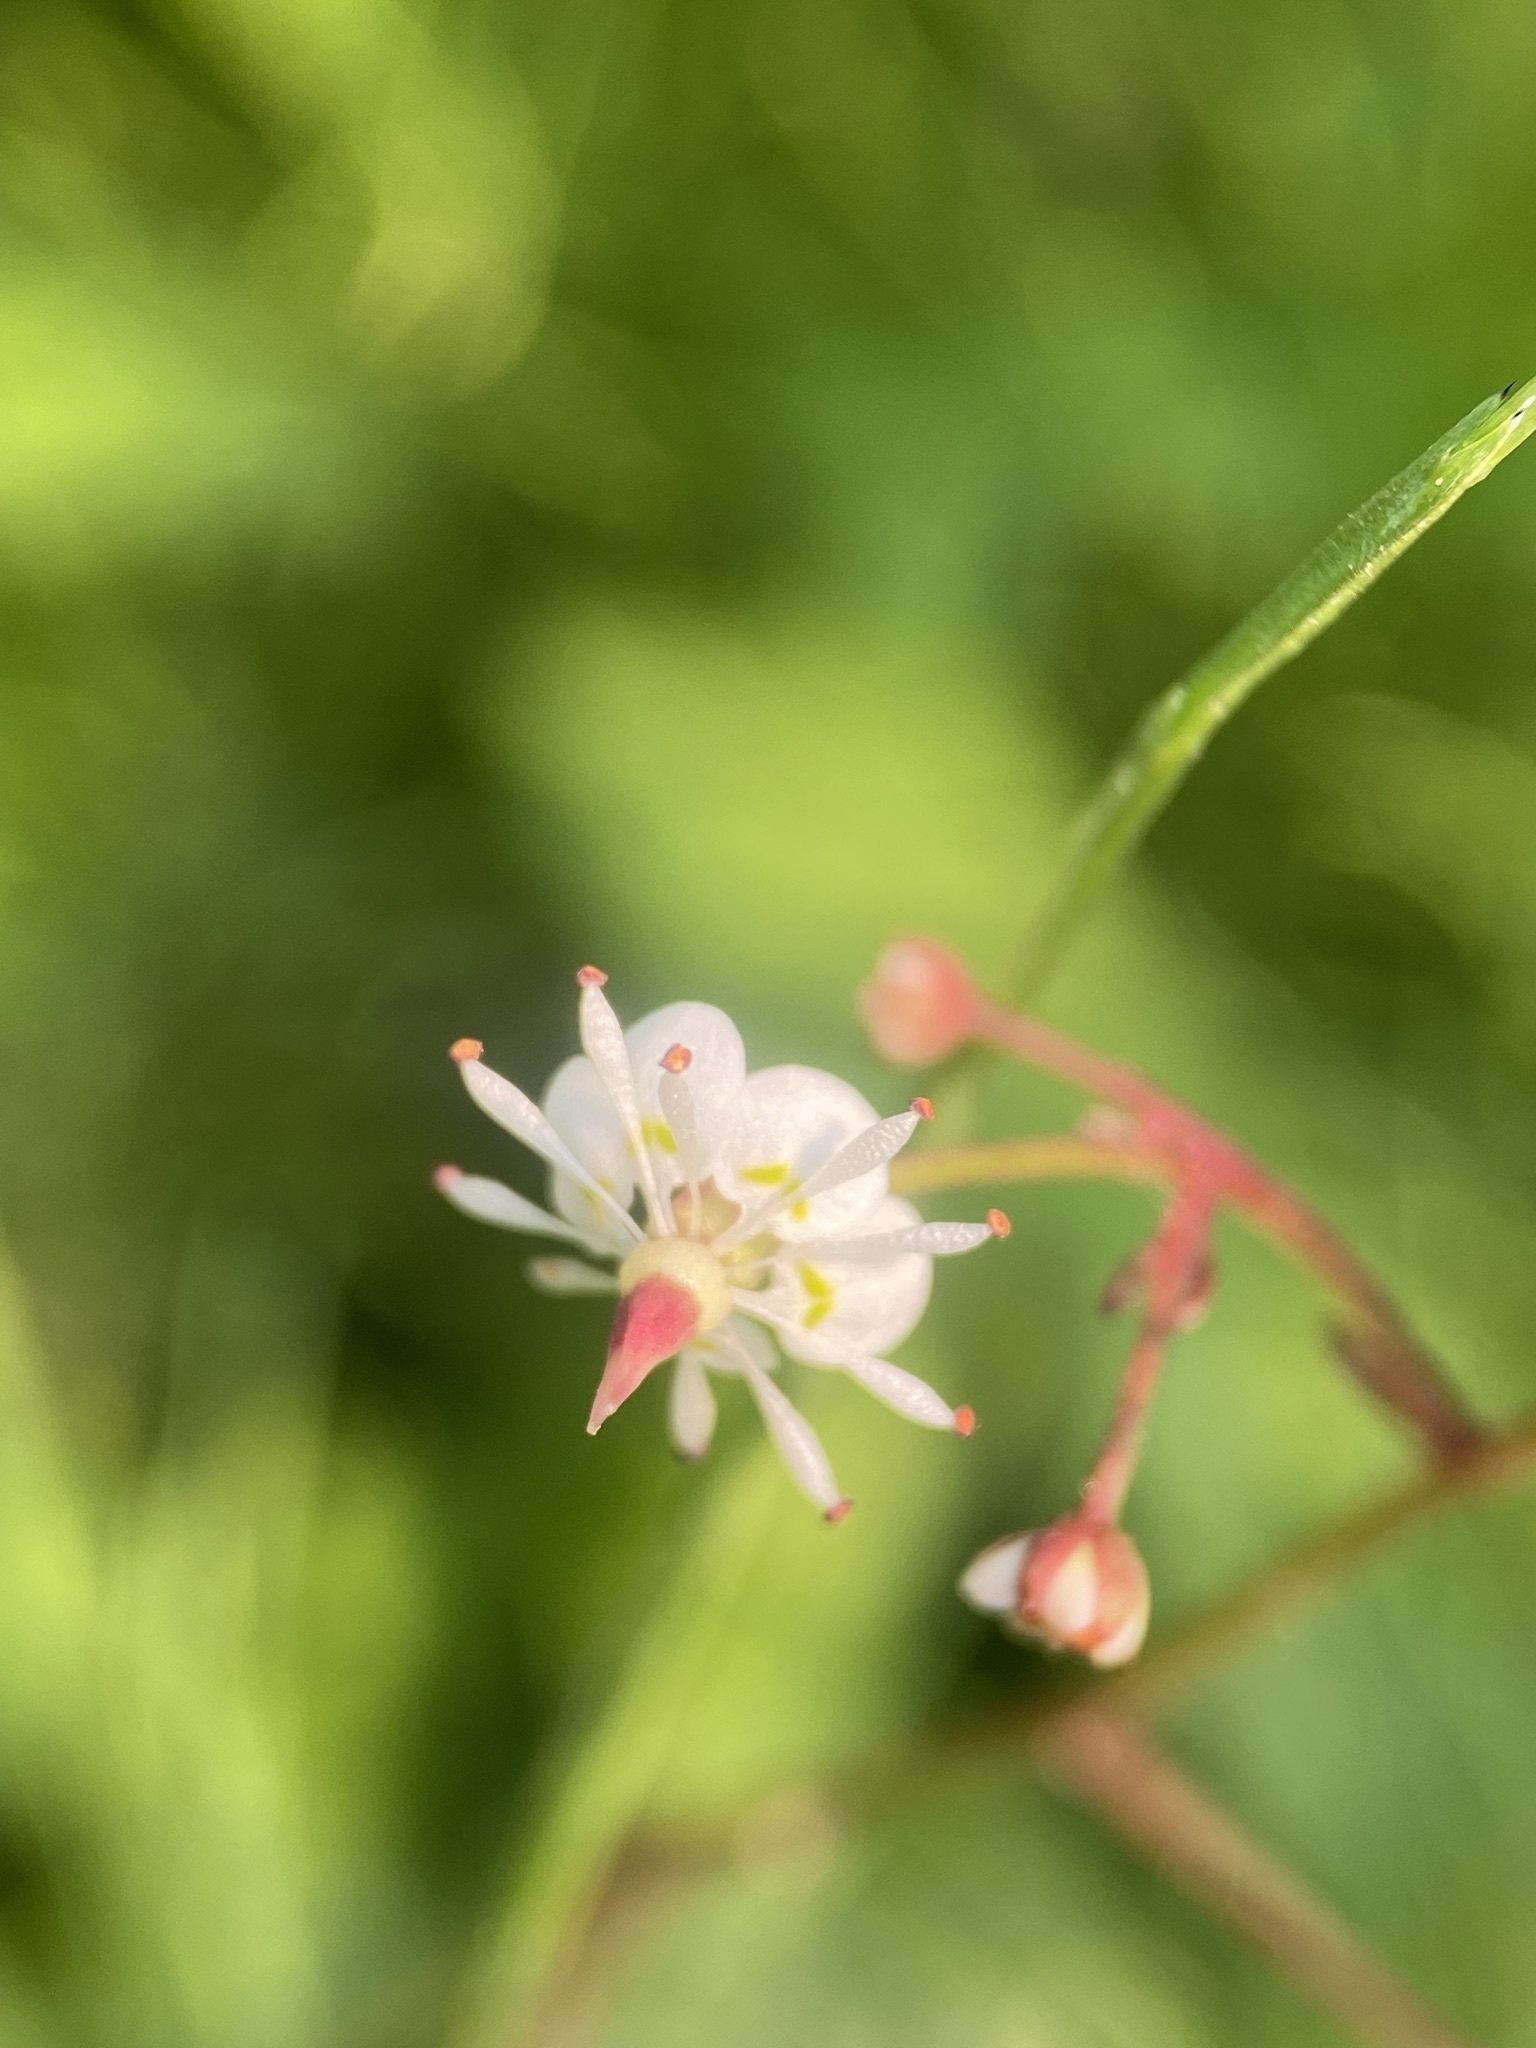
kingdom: Plantae
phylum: Tracheophyta
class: Magnoliopsida
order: Saxifragales
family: Saxifragaceae
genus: Micranthes
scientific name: Micranthes odontoloma
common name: Brook saxifrage
